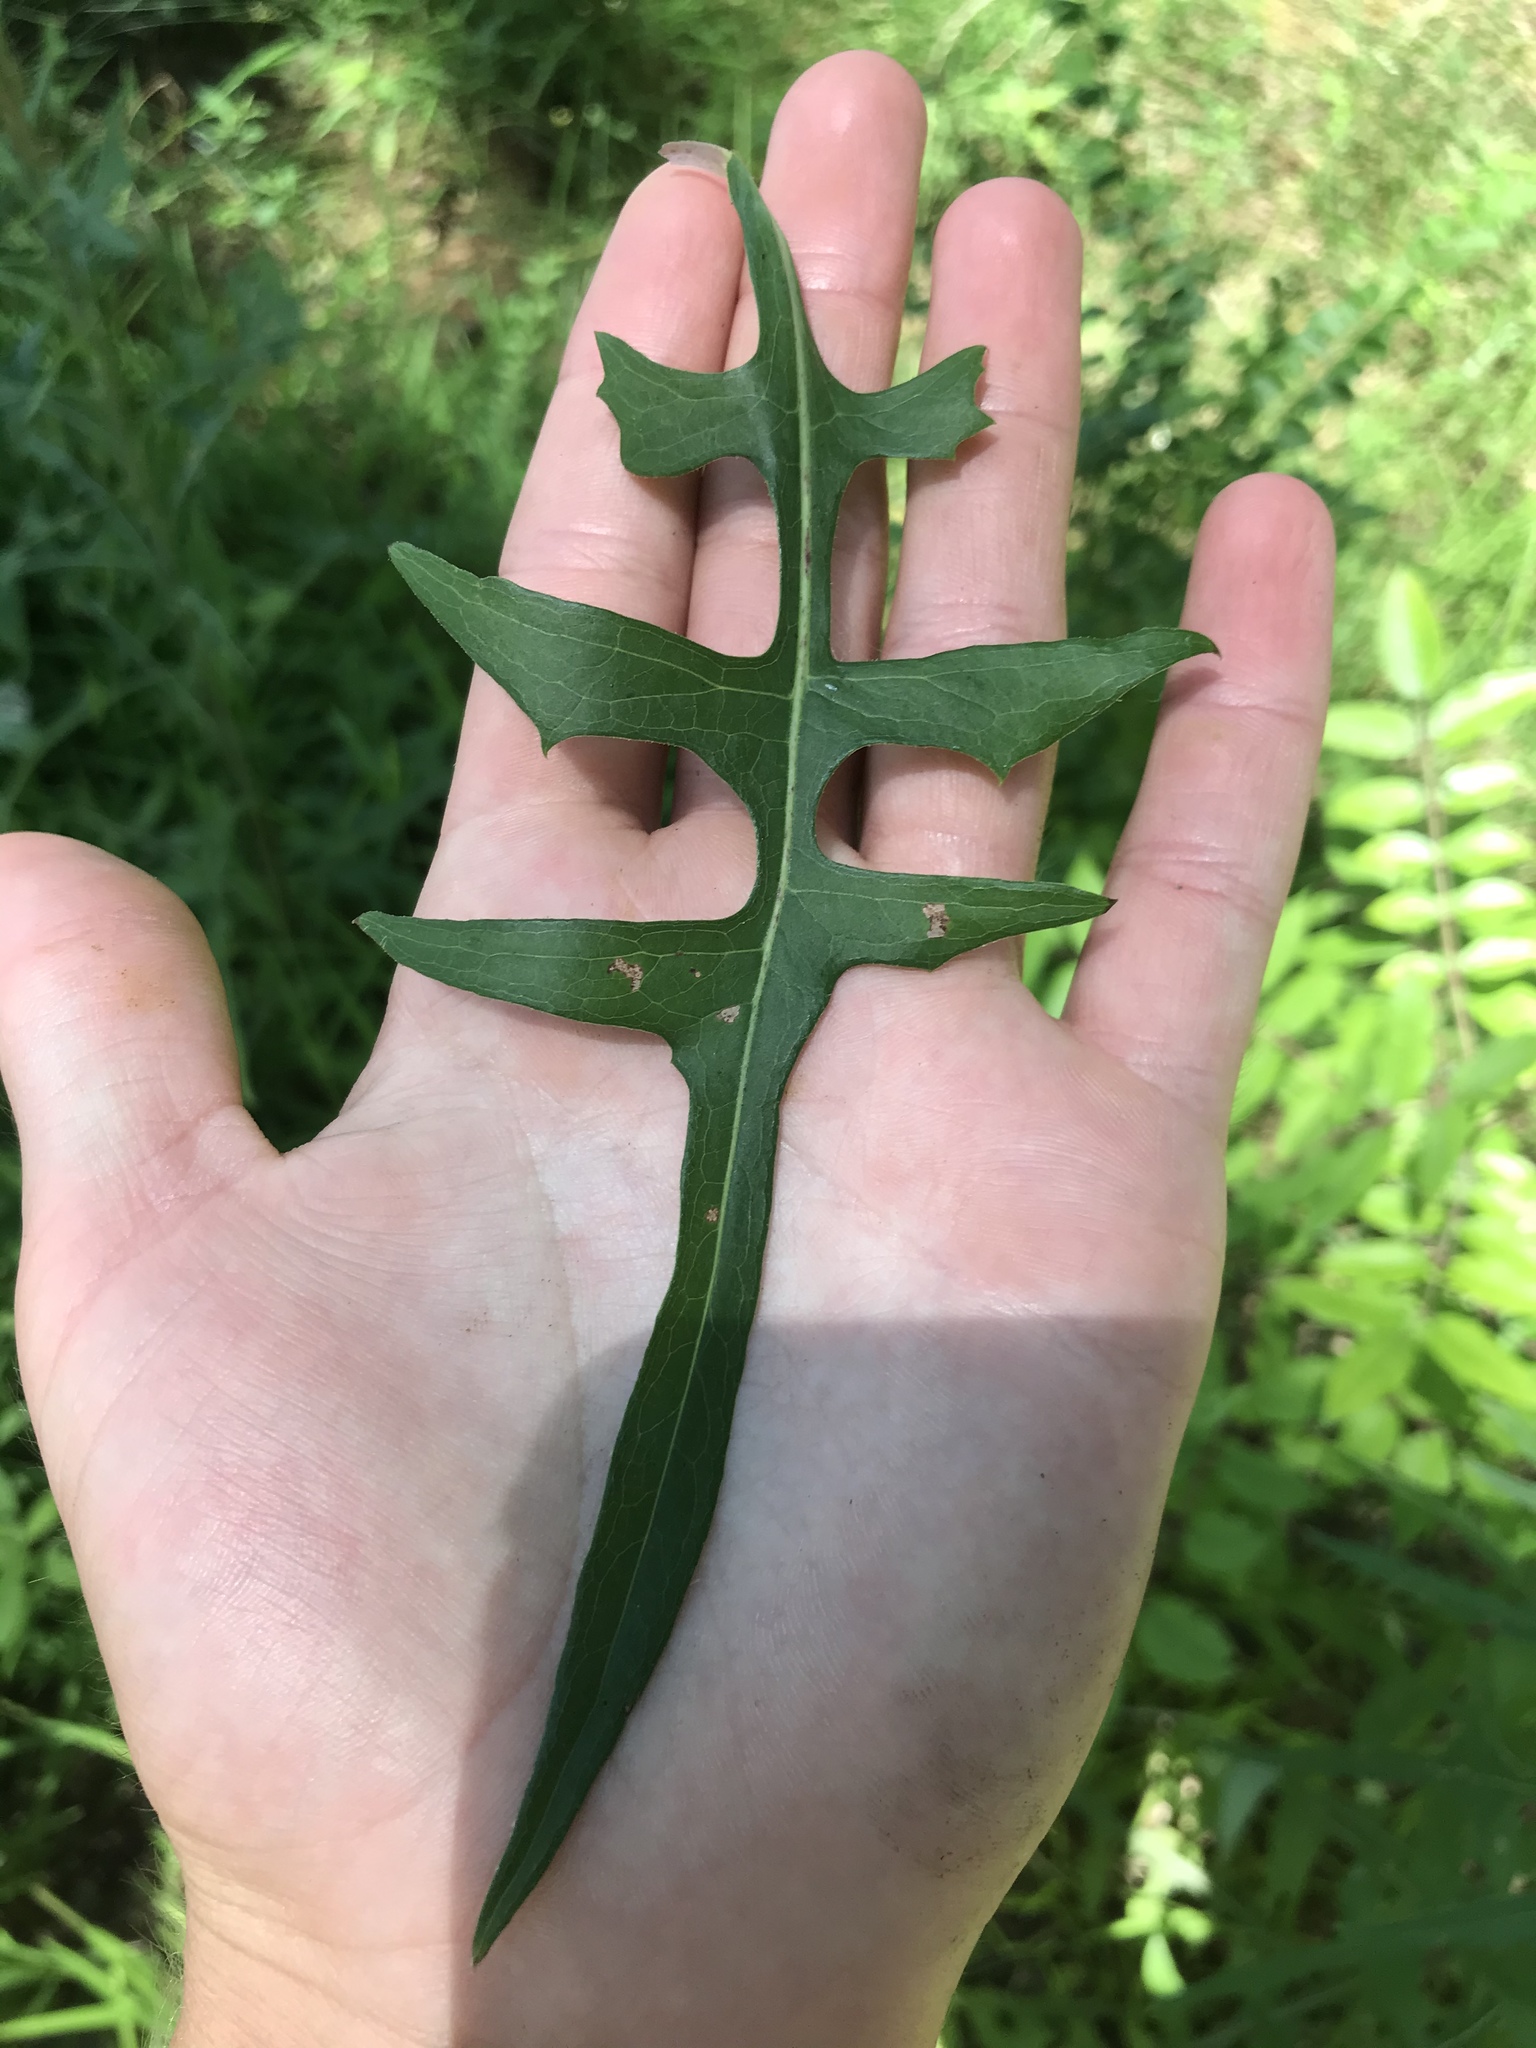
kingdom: Plantae
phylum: Tracheophyta
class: Magnoliopsida
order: Asterales
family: Asteraceae
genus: Lactuca
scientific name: Lactuca canadensis
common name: Canada lettuce
